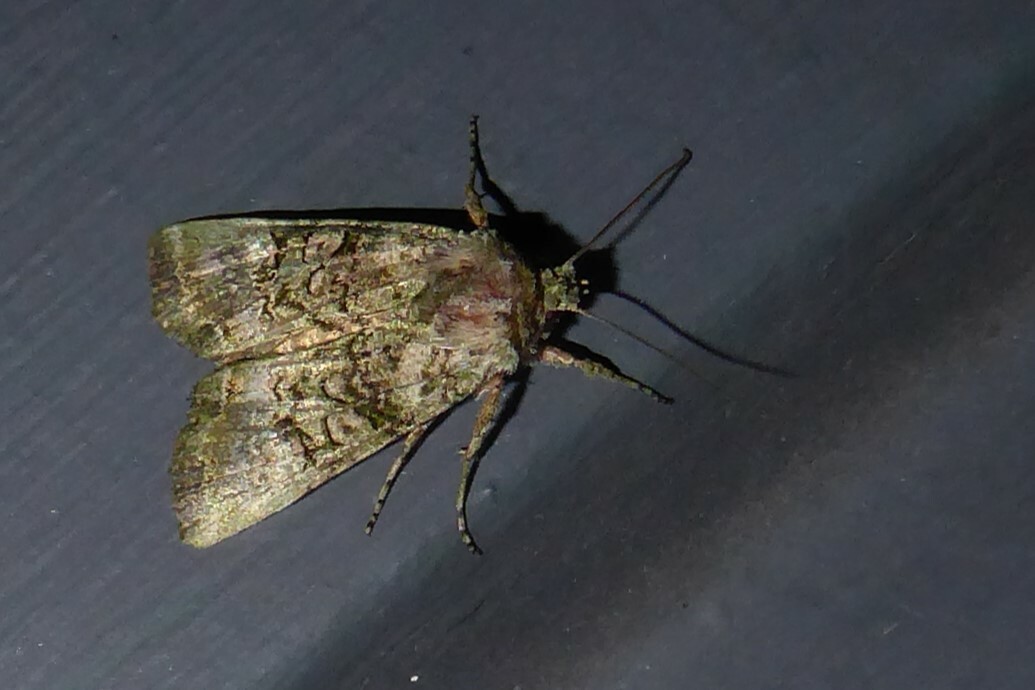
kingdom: Animalia
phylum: Arthropoda
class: Insecta
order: Lepidoptera
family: Noctuidae
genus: Meterana
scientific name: Meterana levis
